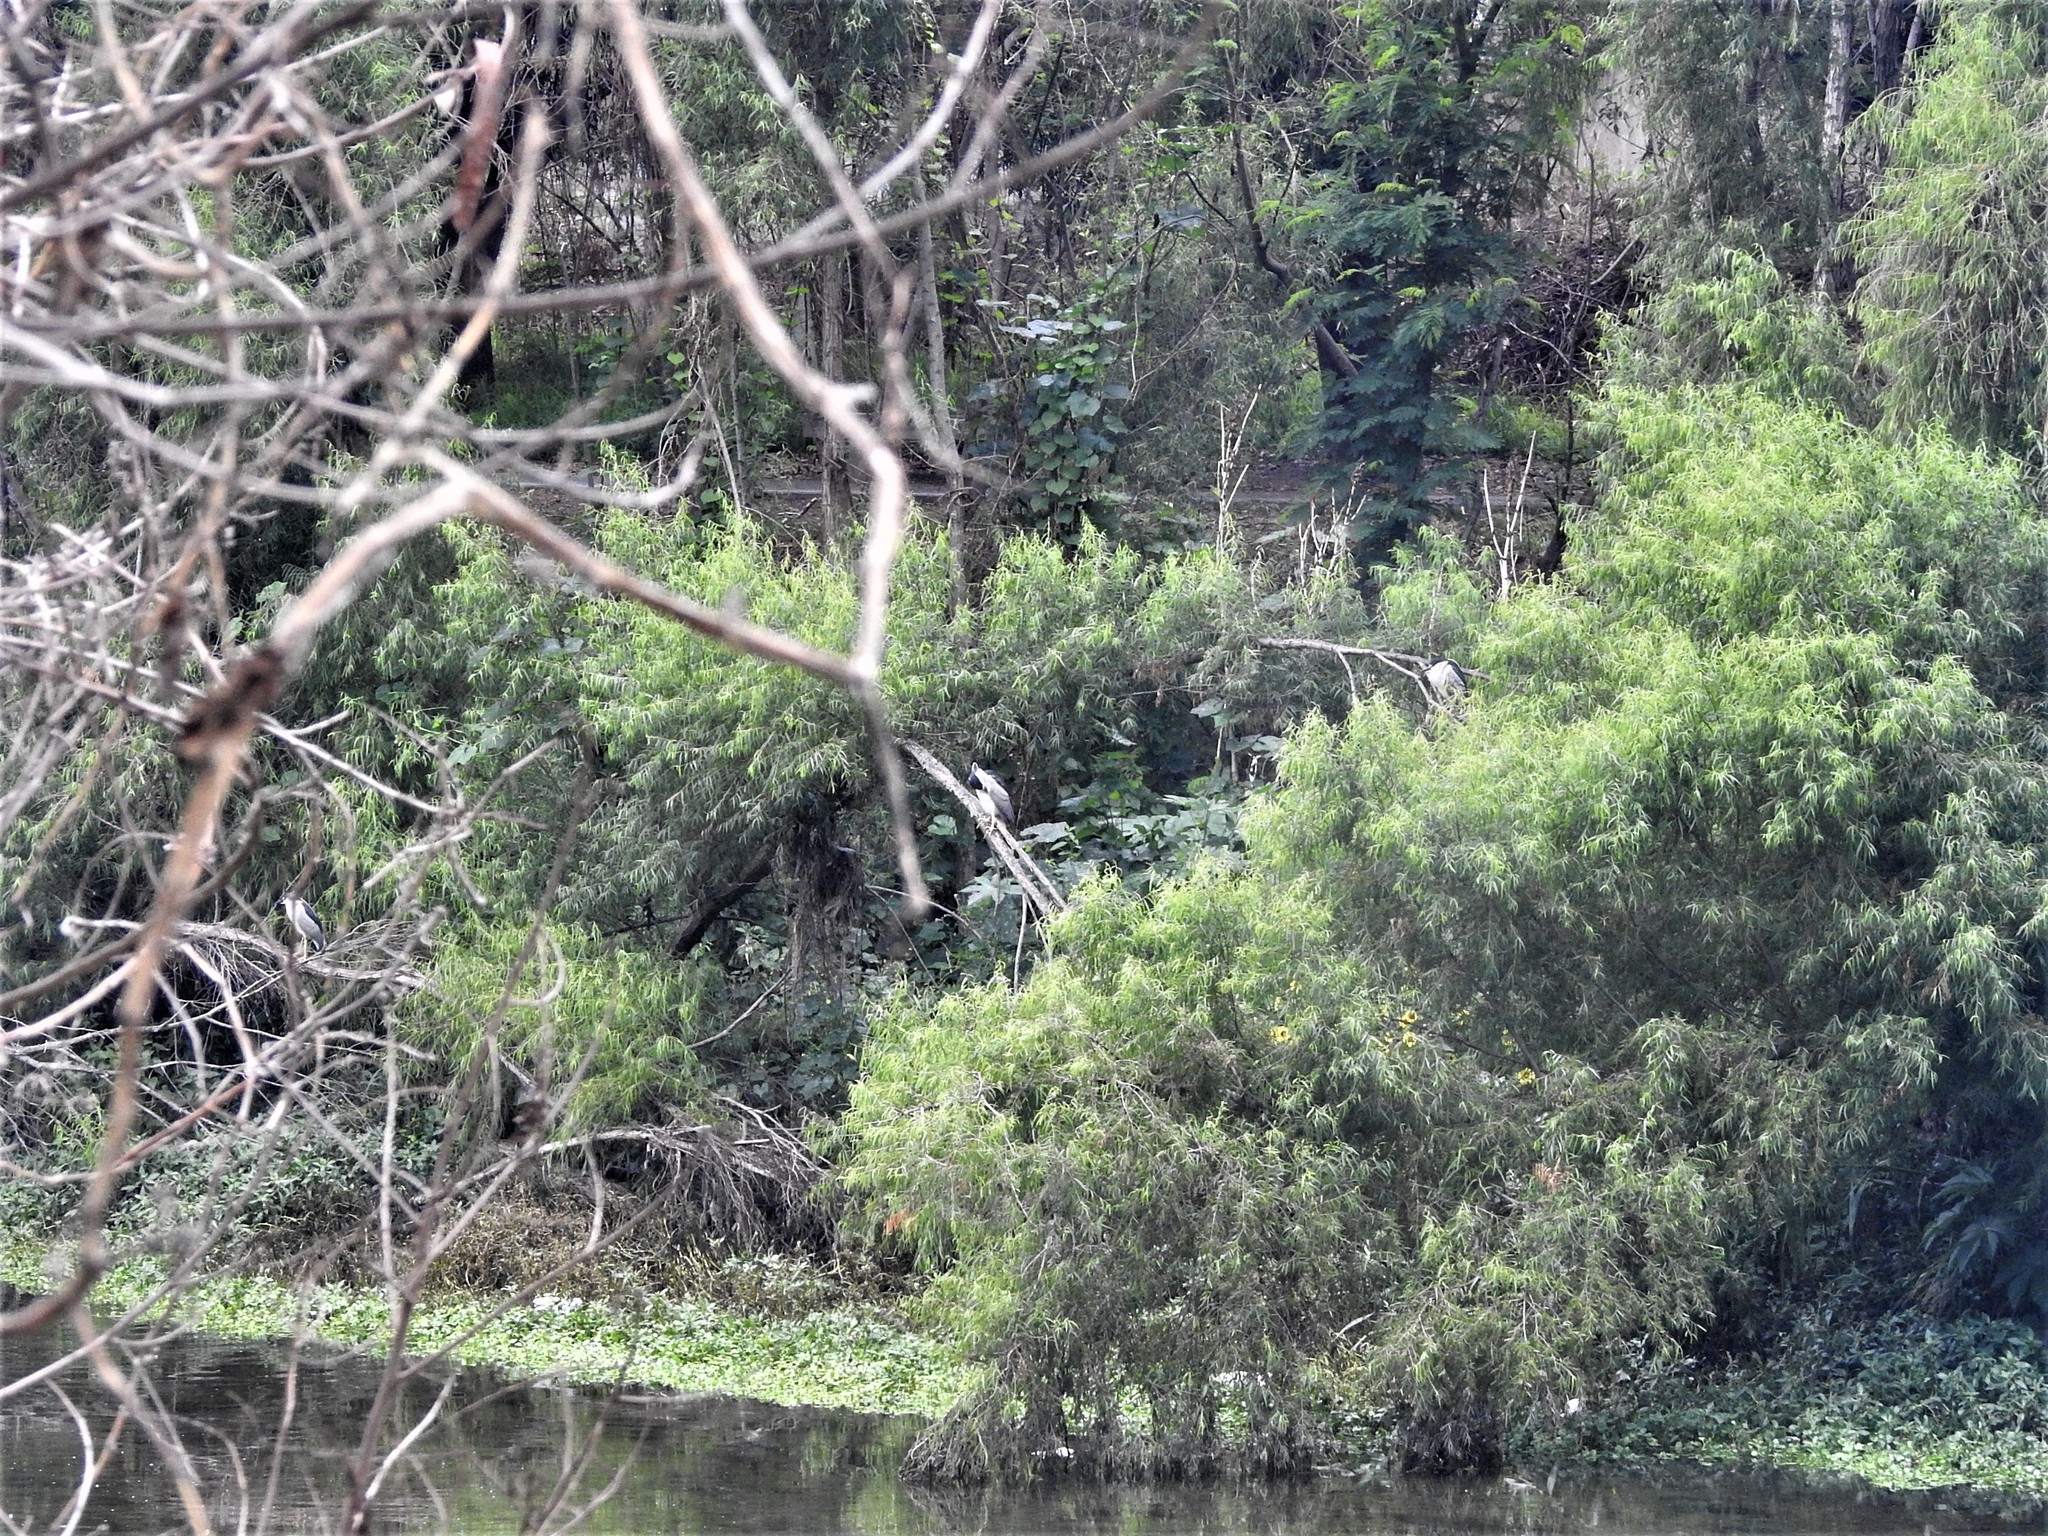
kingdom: Animalia
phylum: Chordata
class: Aves
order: Pelecaniformes
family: Ardeidae
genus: Nycticorax
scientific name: Nycticorax nycticorax
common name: Black-crowned night heron
